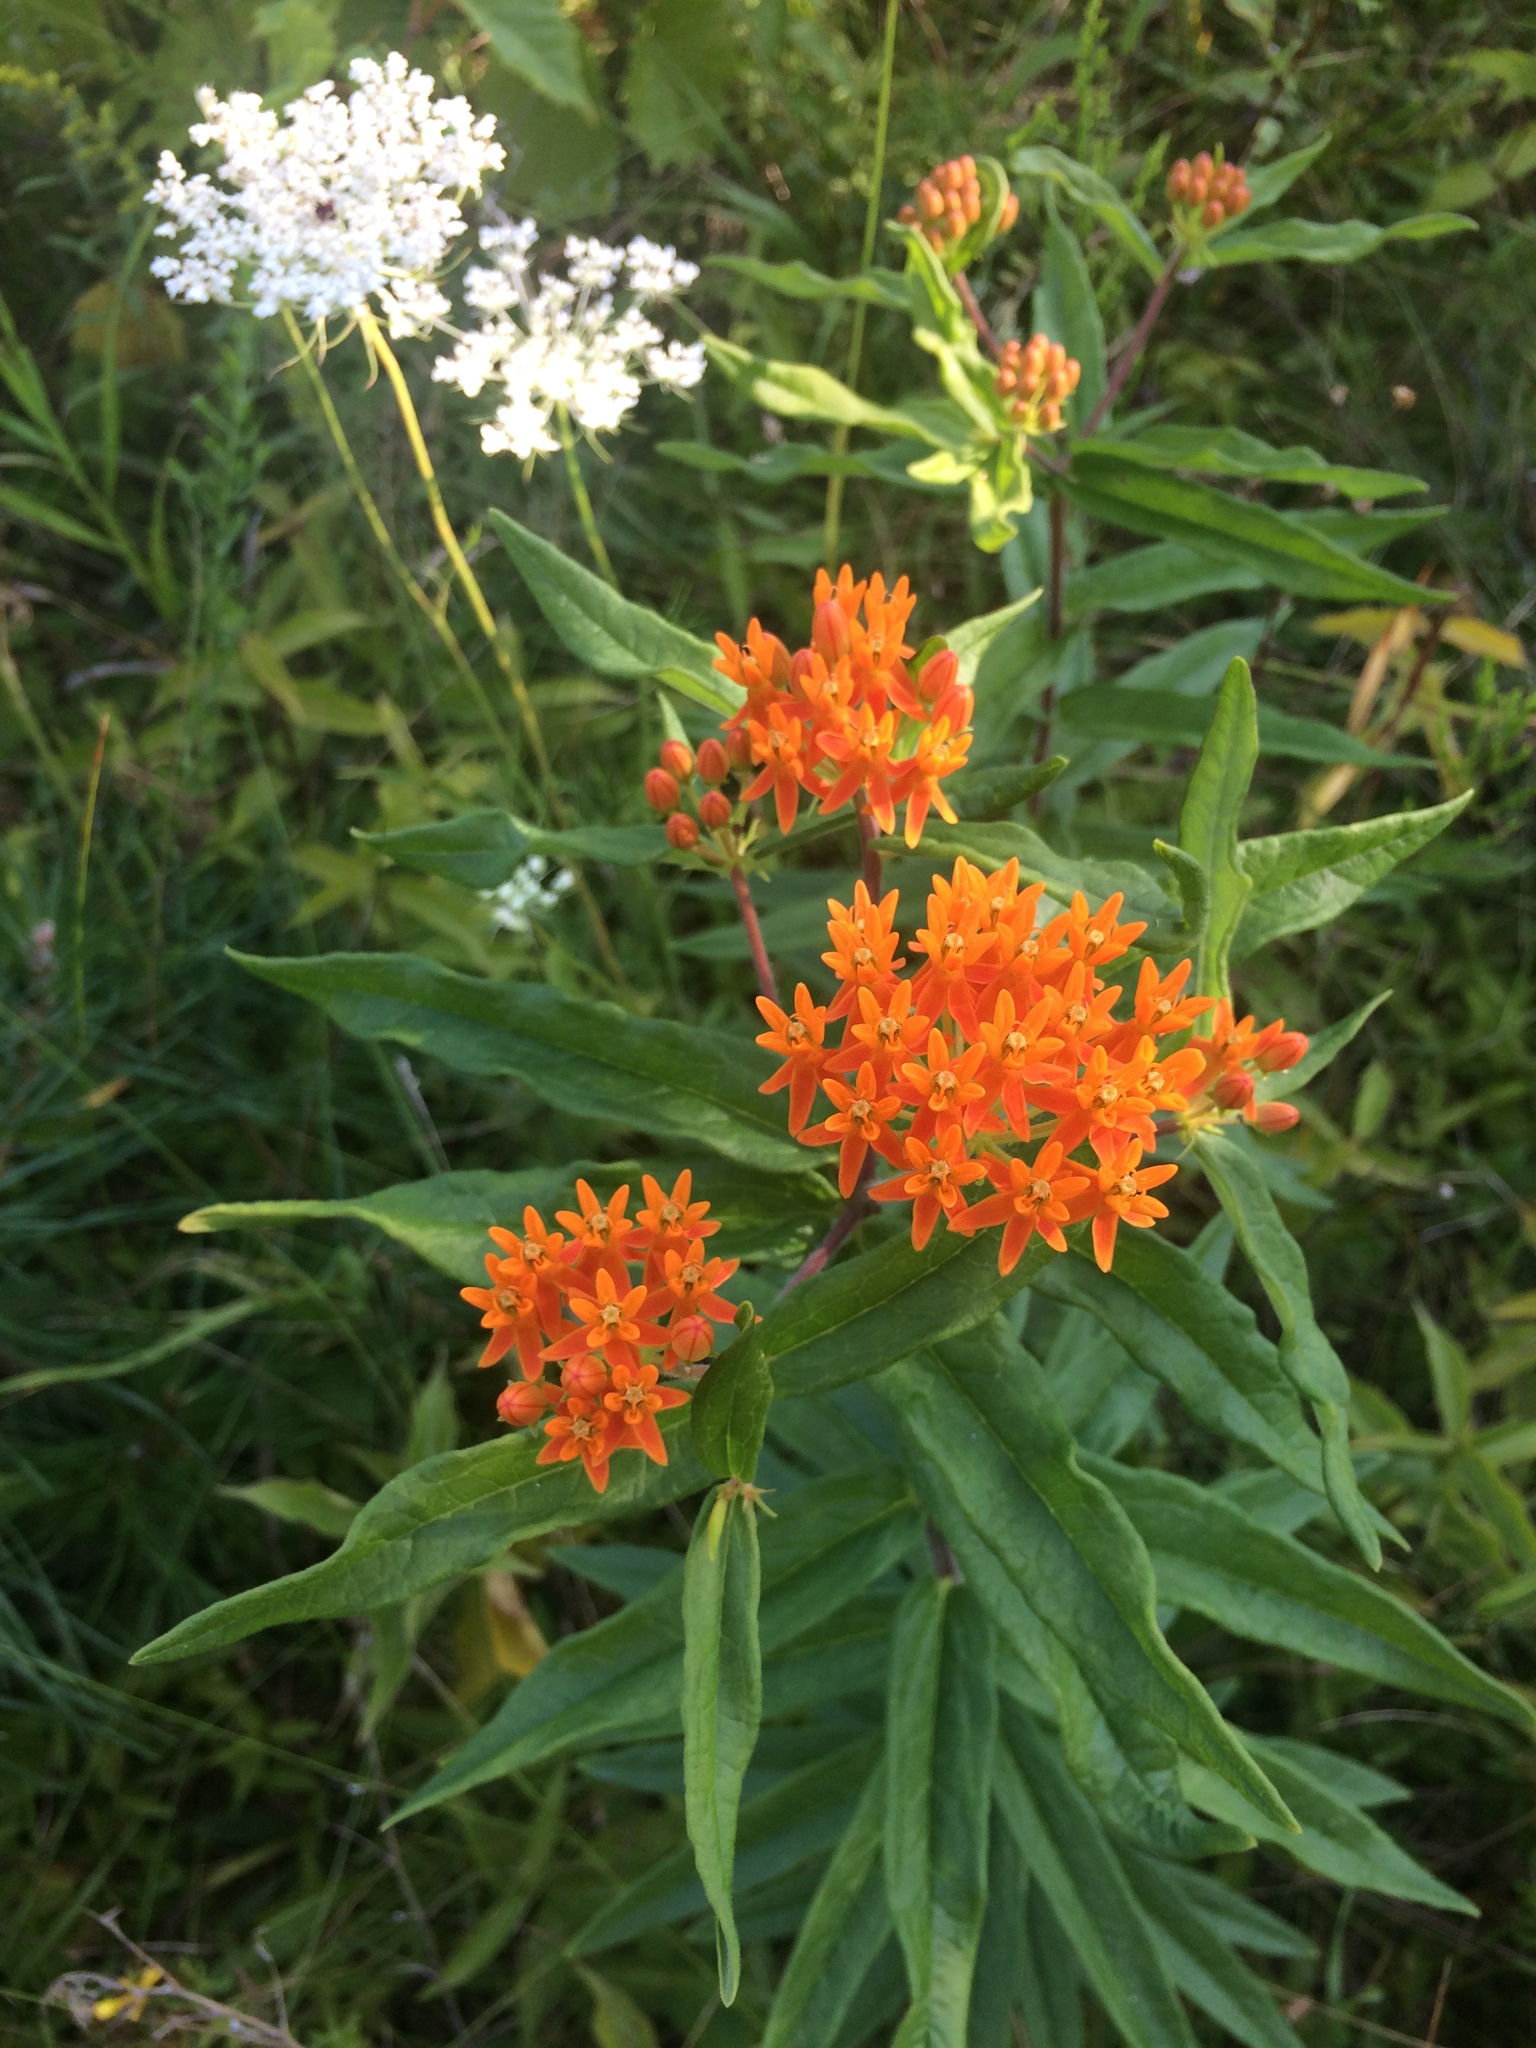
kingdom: Plantae
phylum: Tracheophyta
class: Magnoliopsida
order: Gentianales
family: Apocynaceae
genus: Asclepias
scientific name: Asclepias tuberosa
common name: Butterfly milkweed
